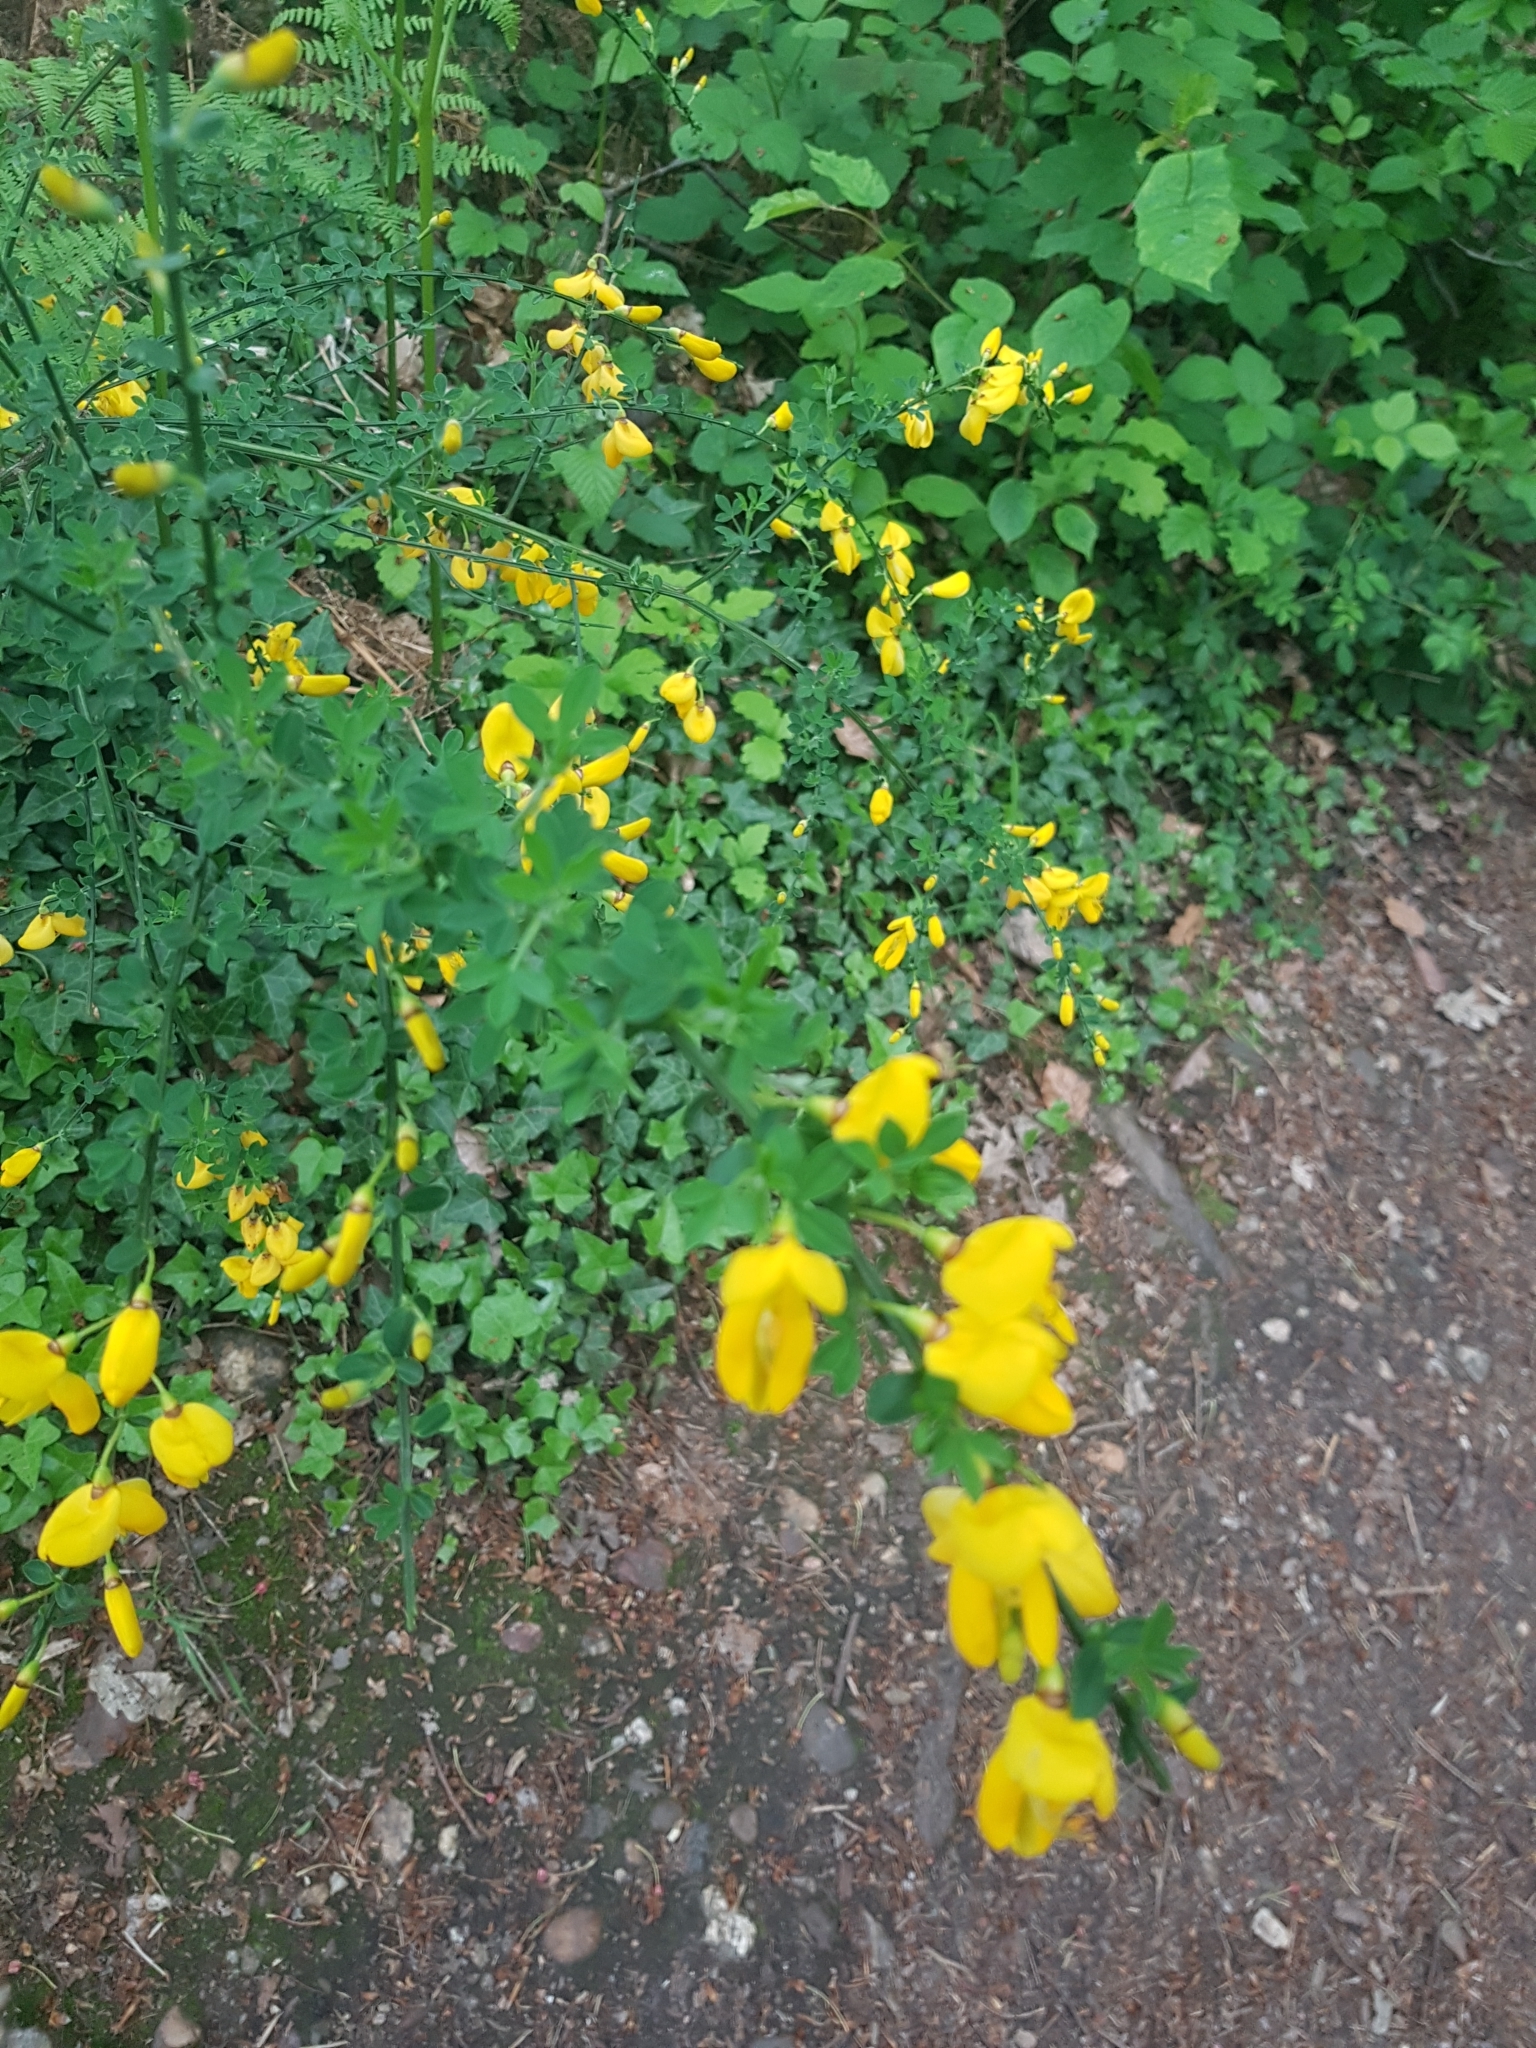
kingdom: Plantae
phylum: Tracheophyta
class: Magnoliopsida
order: Fabales
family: Fabaceae
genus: Cytisus
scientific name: Cytisus scoparius
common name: Scotch broom
